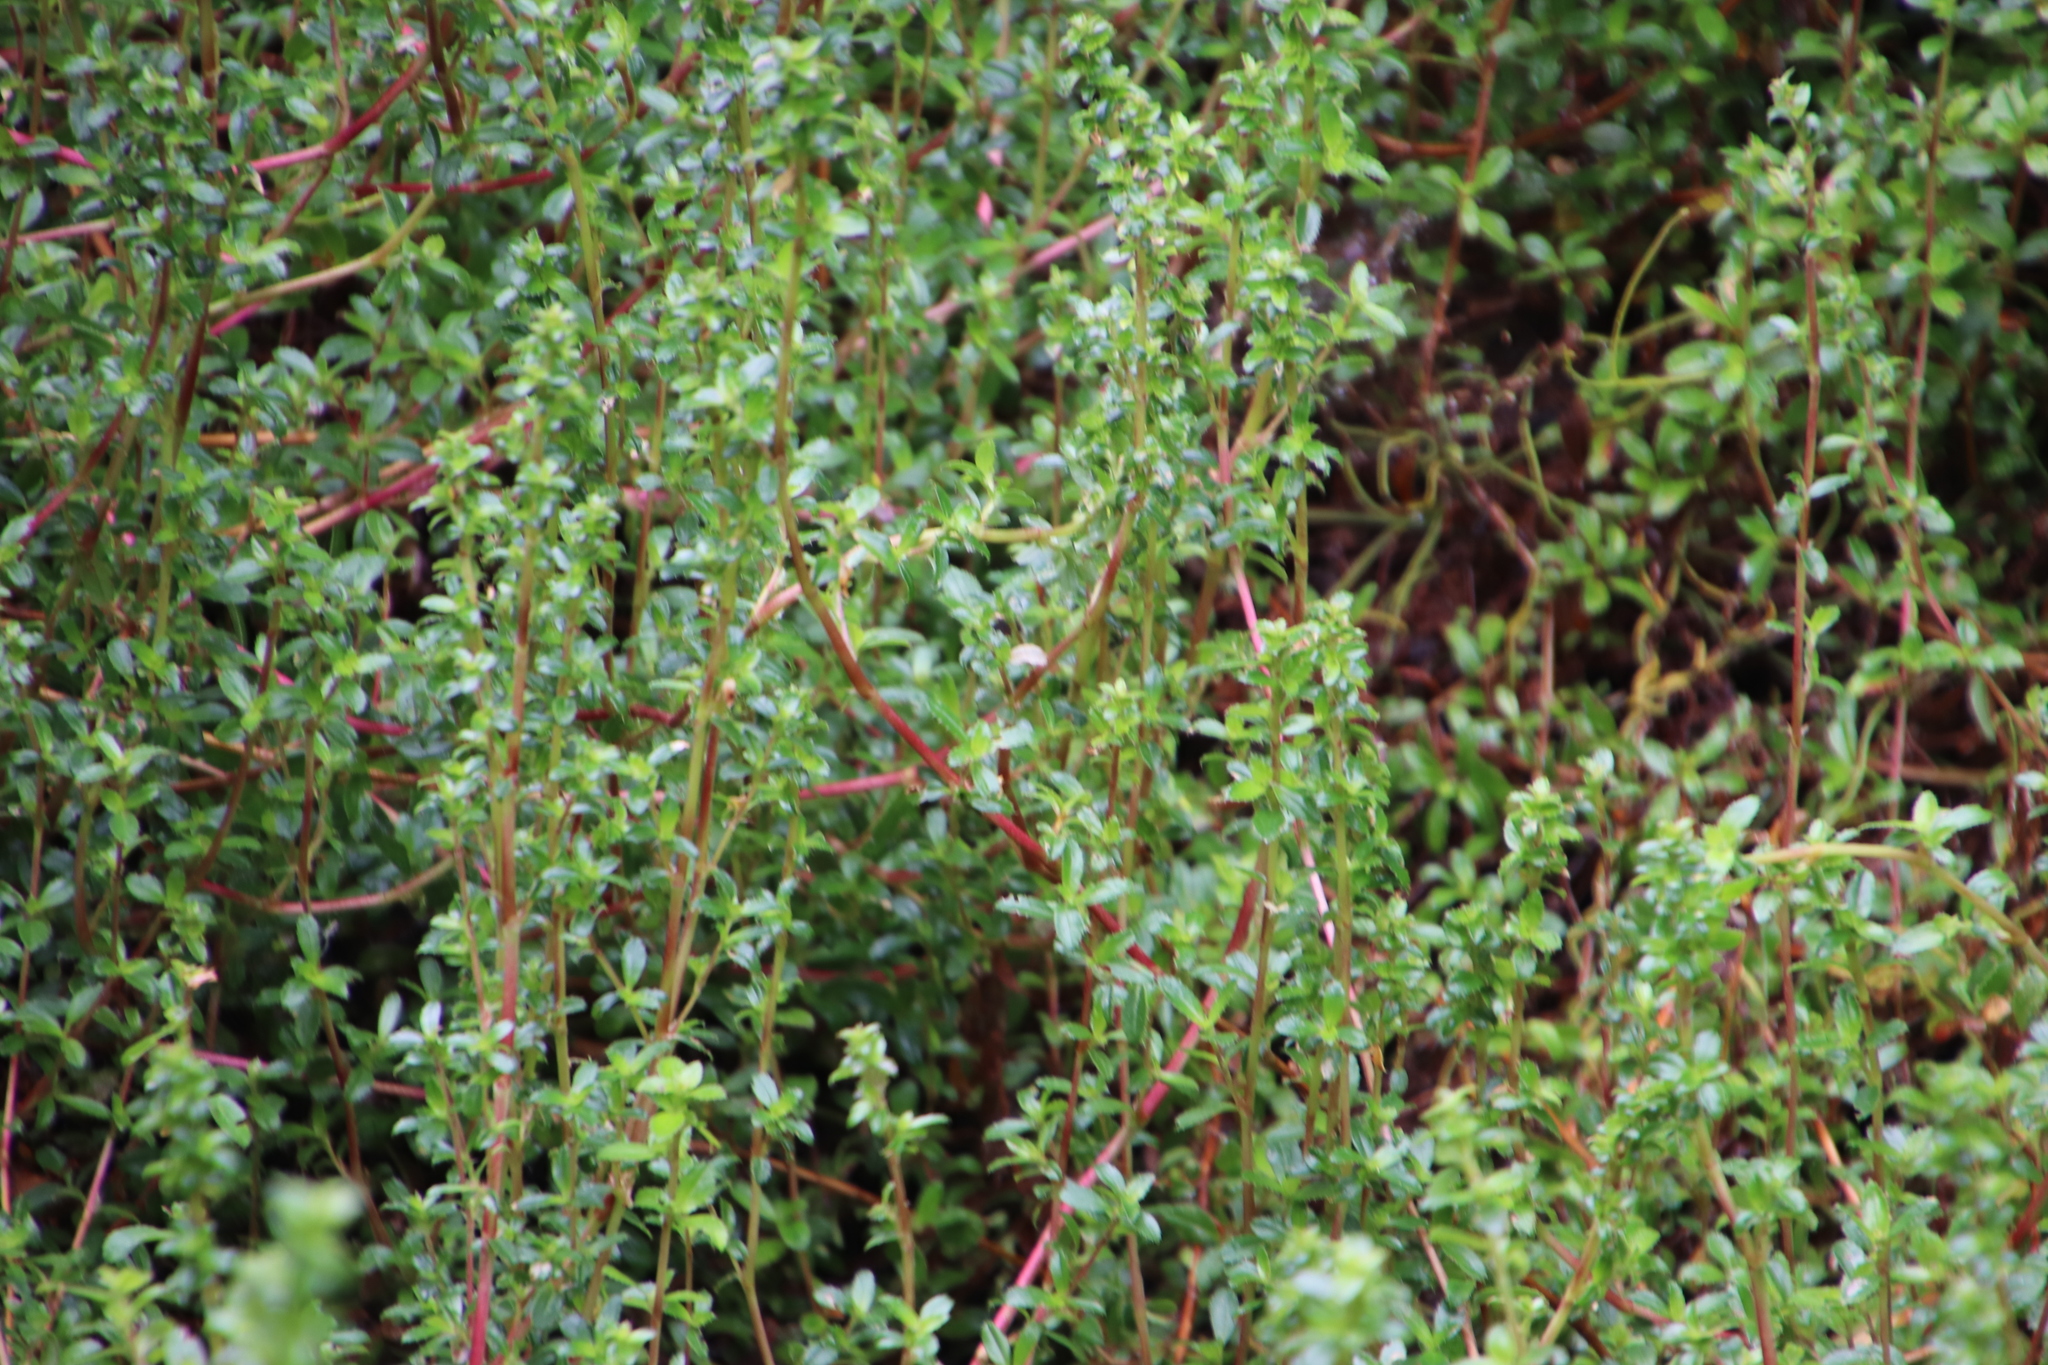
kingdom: Plantae
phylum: Tracheophyta
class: Magnoliopsida
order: Rosales
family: Rosaceae
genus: Cliffortia
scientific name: Cliffortia ferruginea
